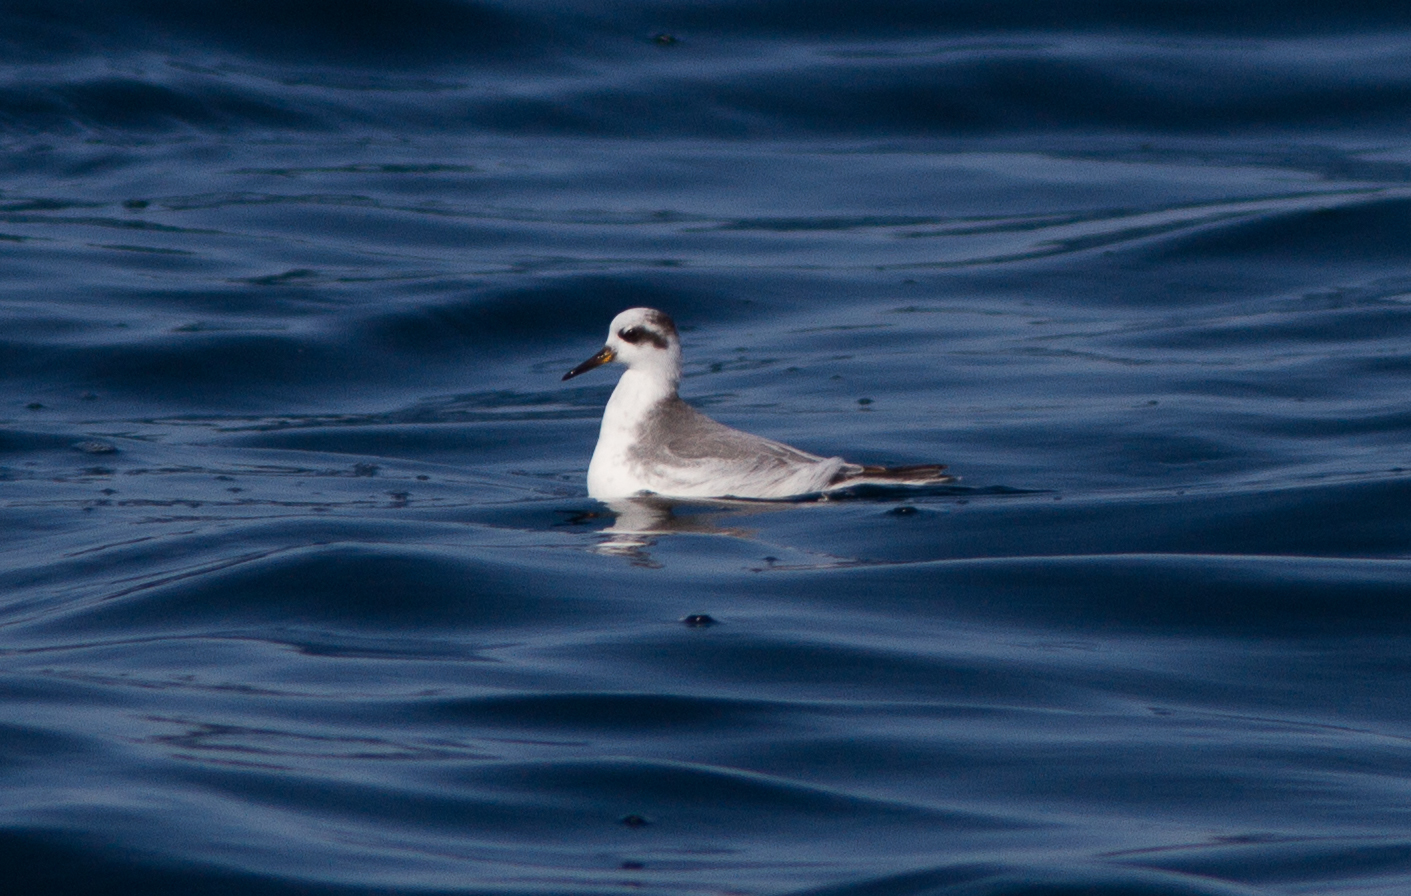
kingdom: Animalia
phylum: Chordata
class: Aves
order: Charadriiformes
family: Scolopacidae
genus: Phalaropus
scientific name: Phalaropus fulicarius
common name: Red phalarope
